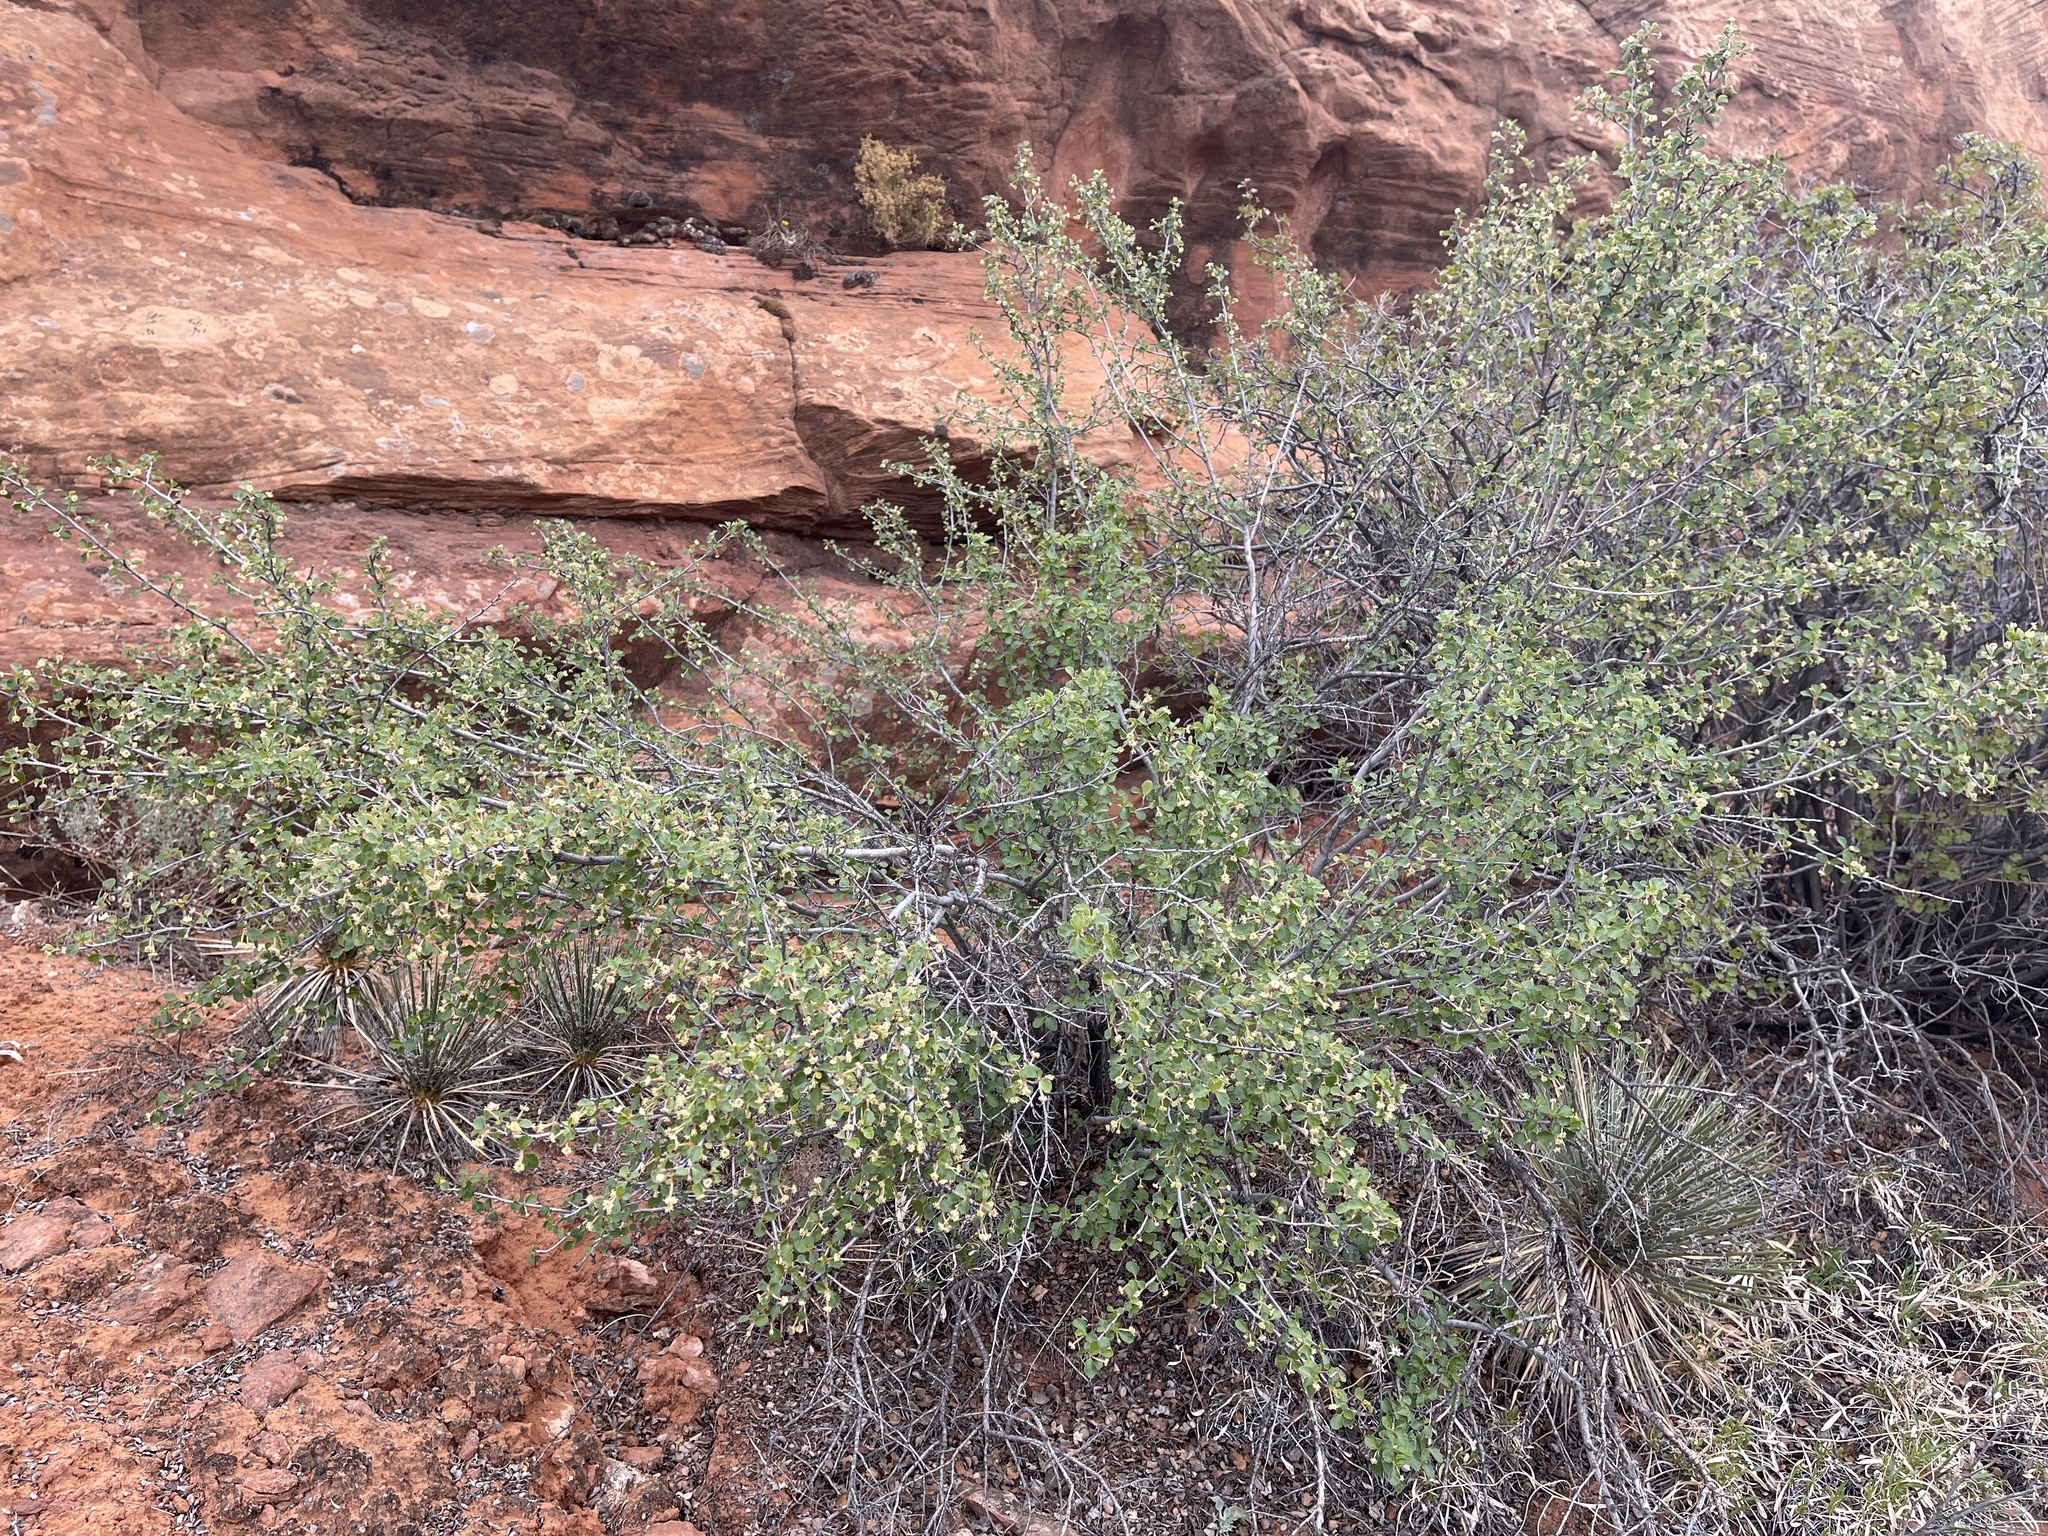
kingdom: Plantae
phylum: Tracheophyta
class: Magnoliopsida
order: Rosales
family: Rosaceae
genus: Cercocarpus
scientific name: Cercocarpus montanus
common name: Alder-leaf cercocarpus
